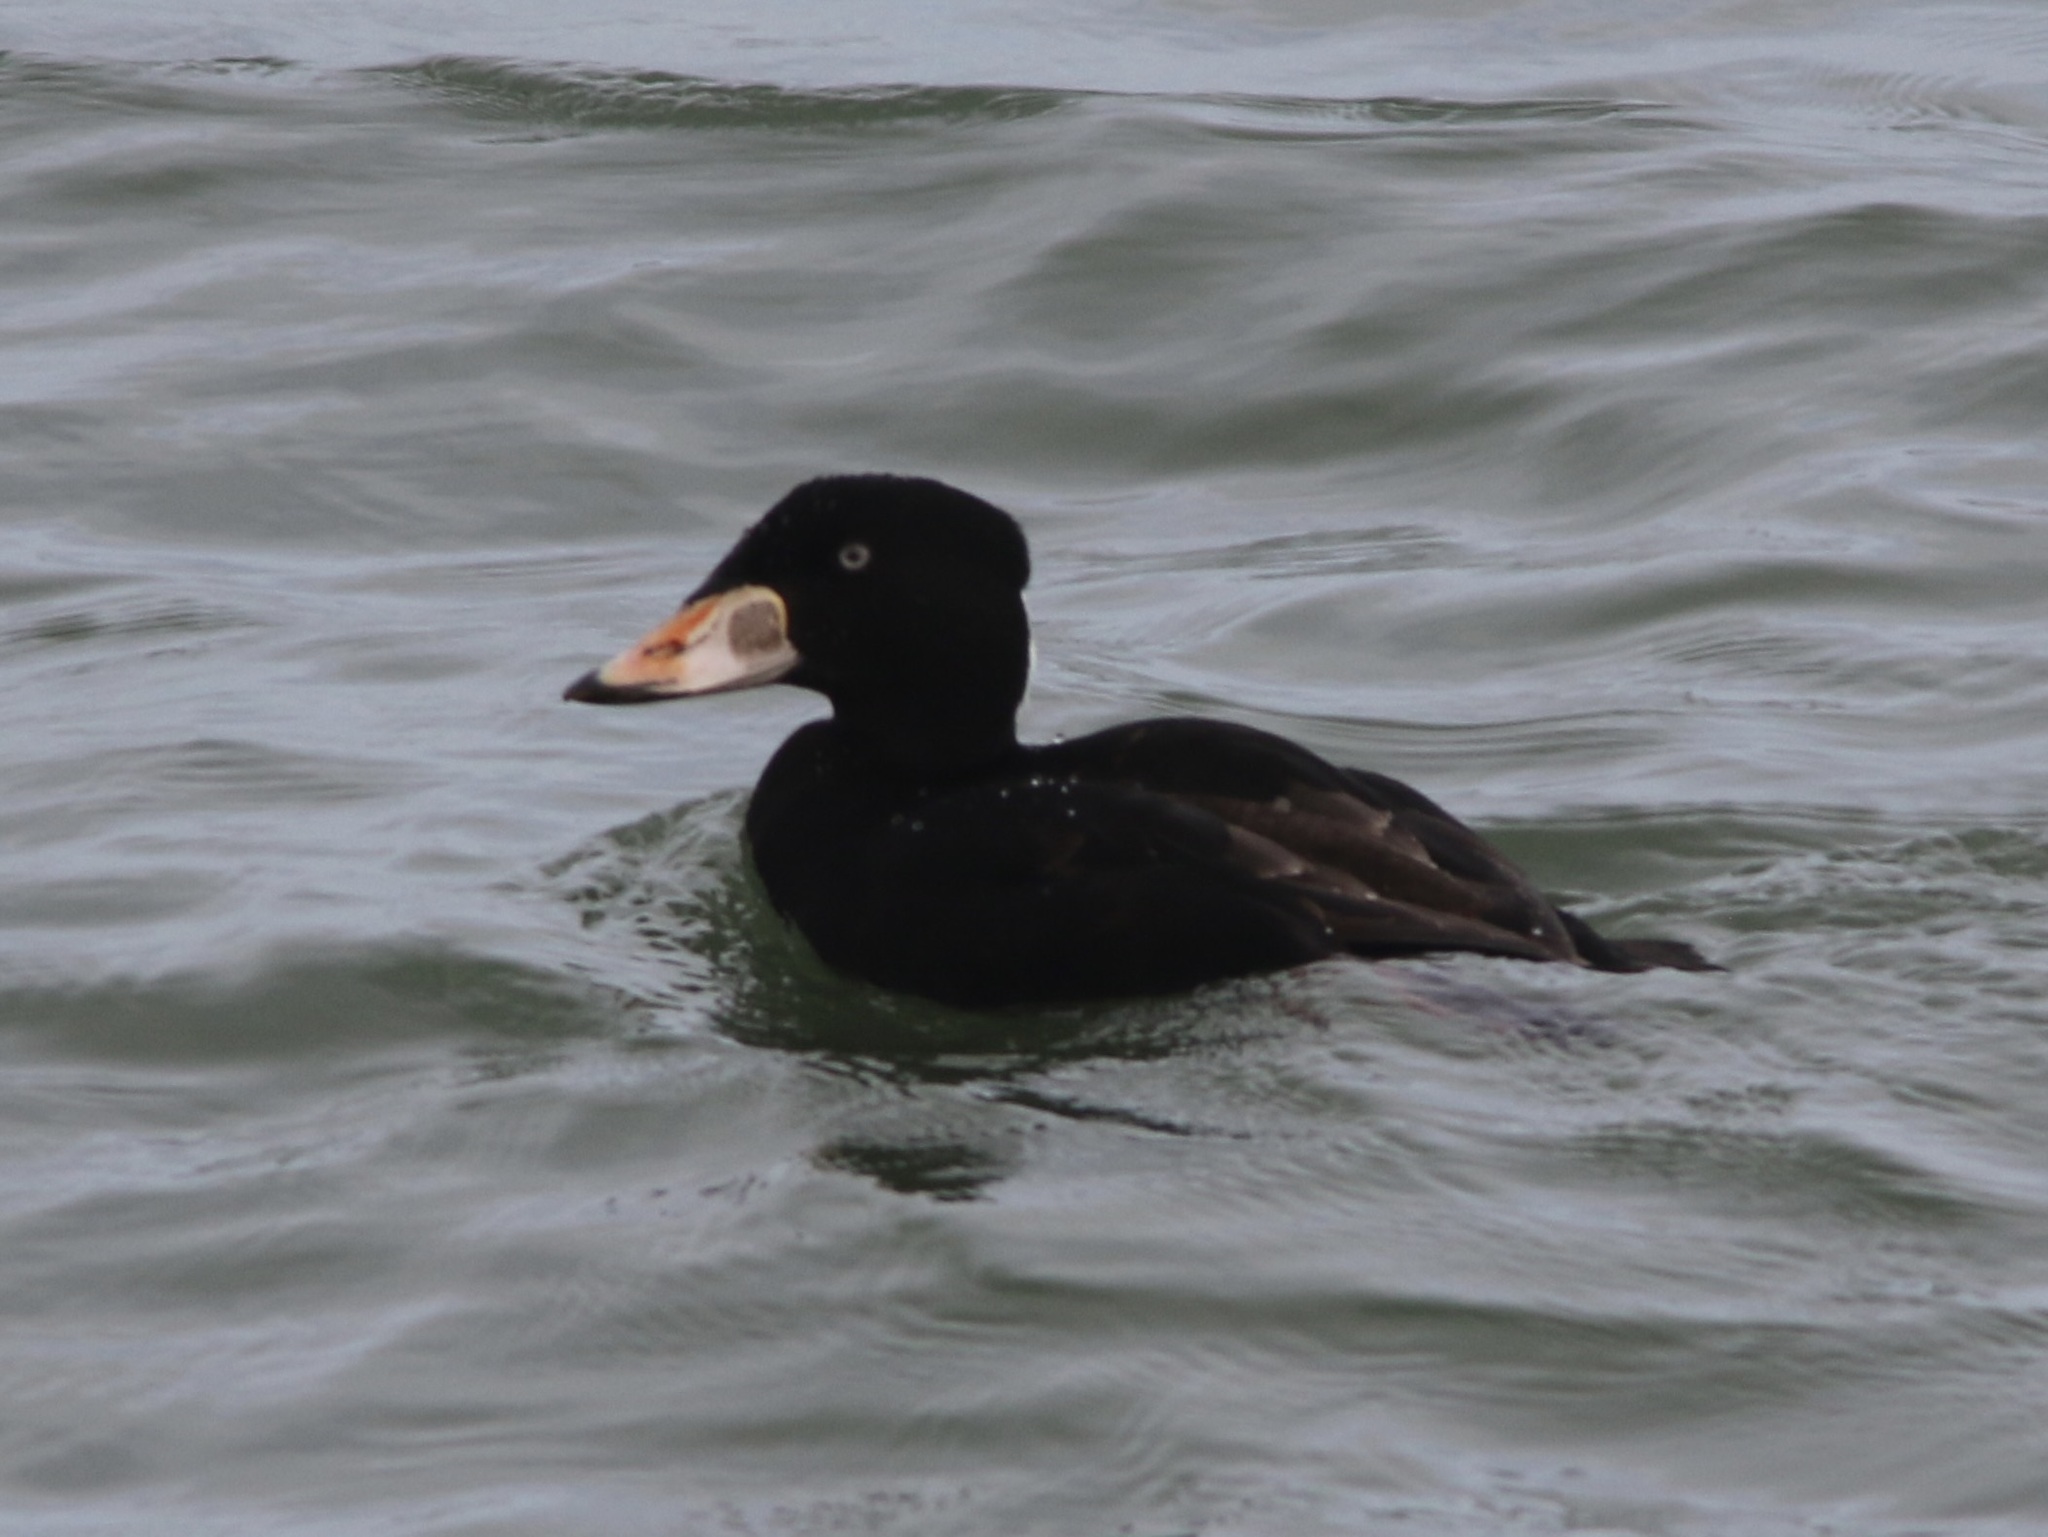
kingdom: Animalia
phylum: Chordata
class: Aves
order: Anseriformes
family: Anatidae
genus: Melanitta
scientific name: Melanitta perspicillata
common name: Surf scoter
